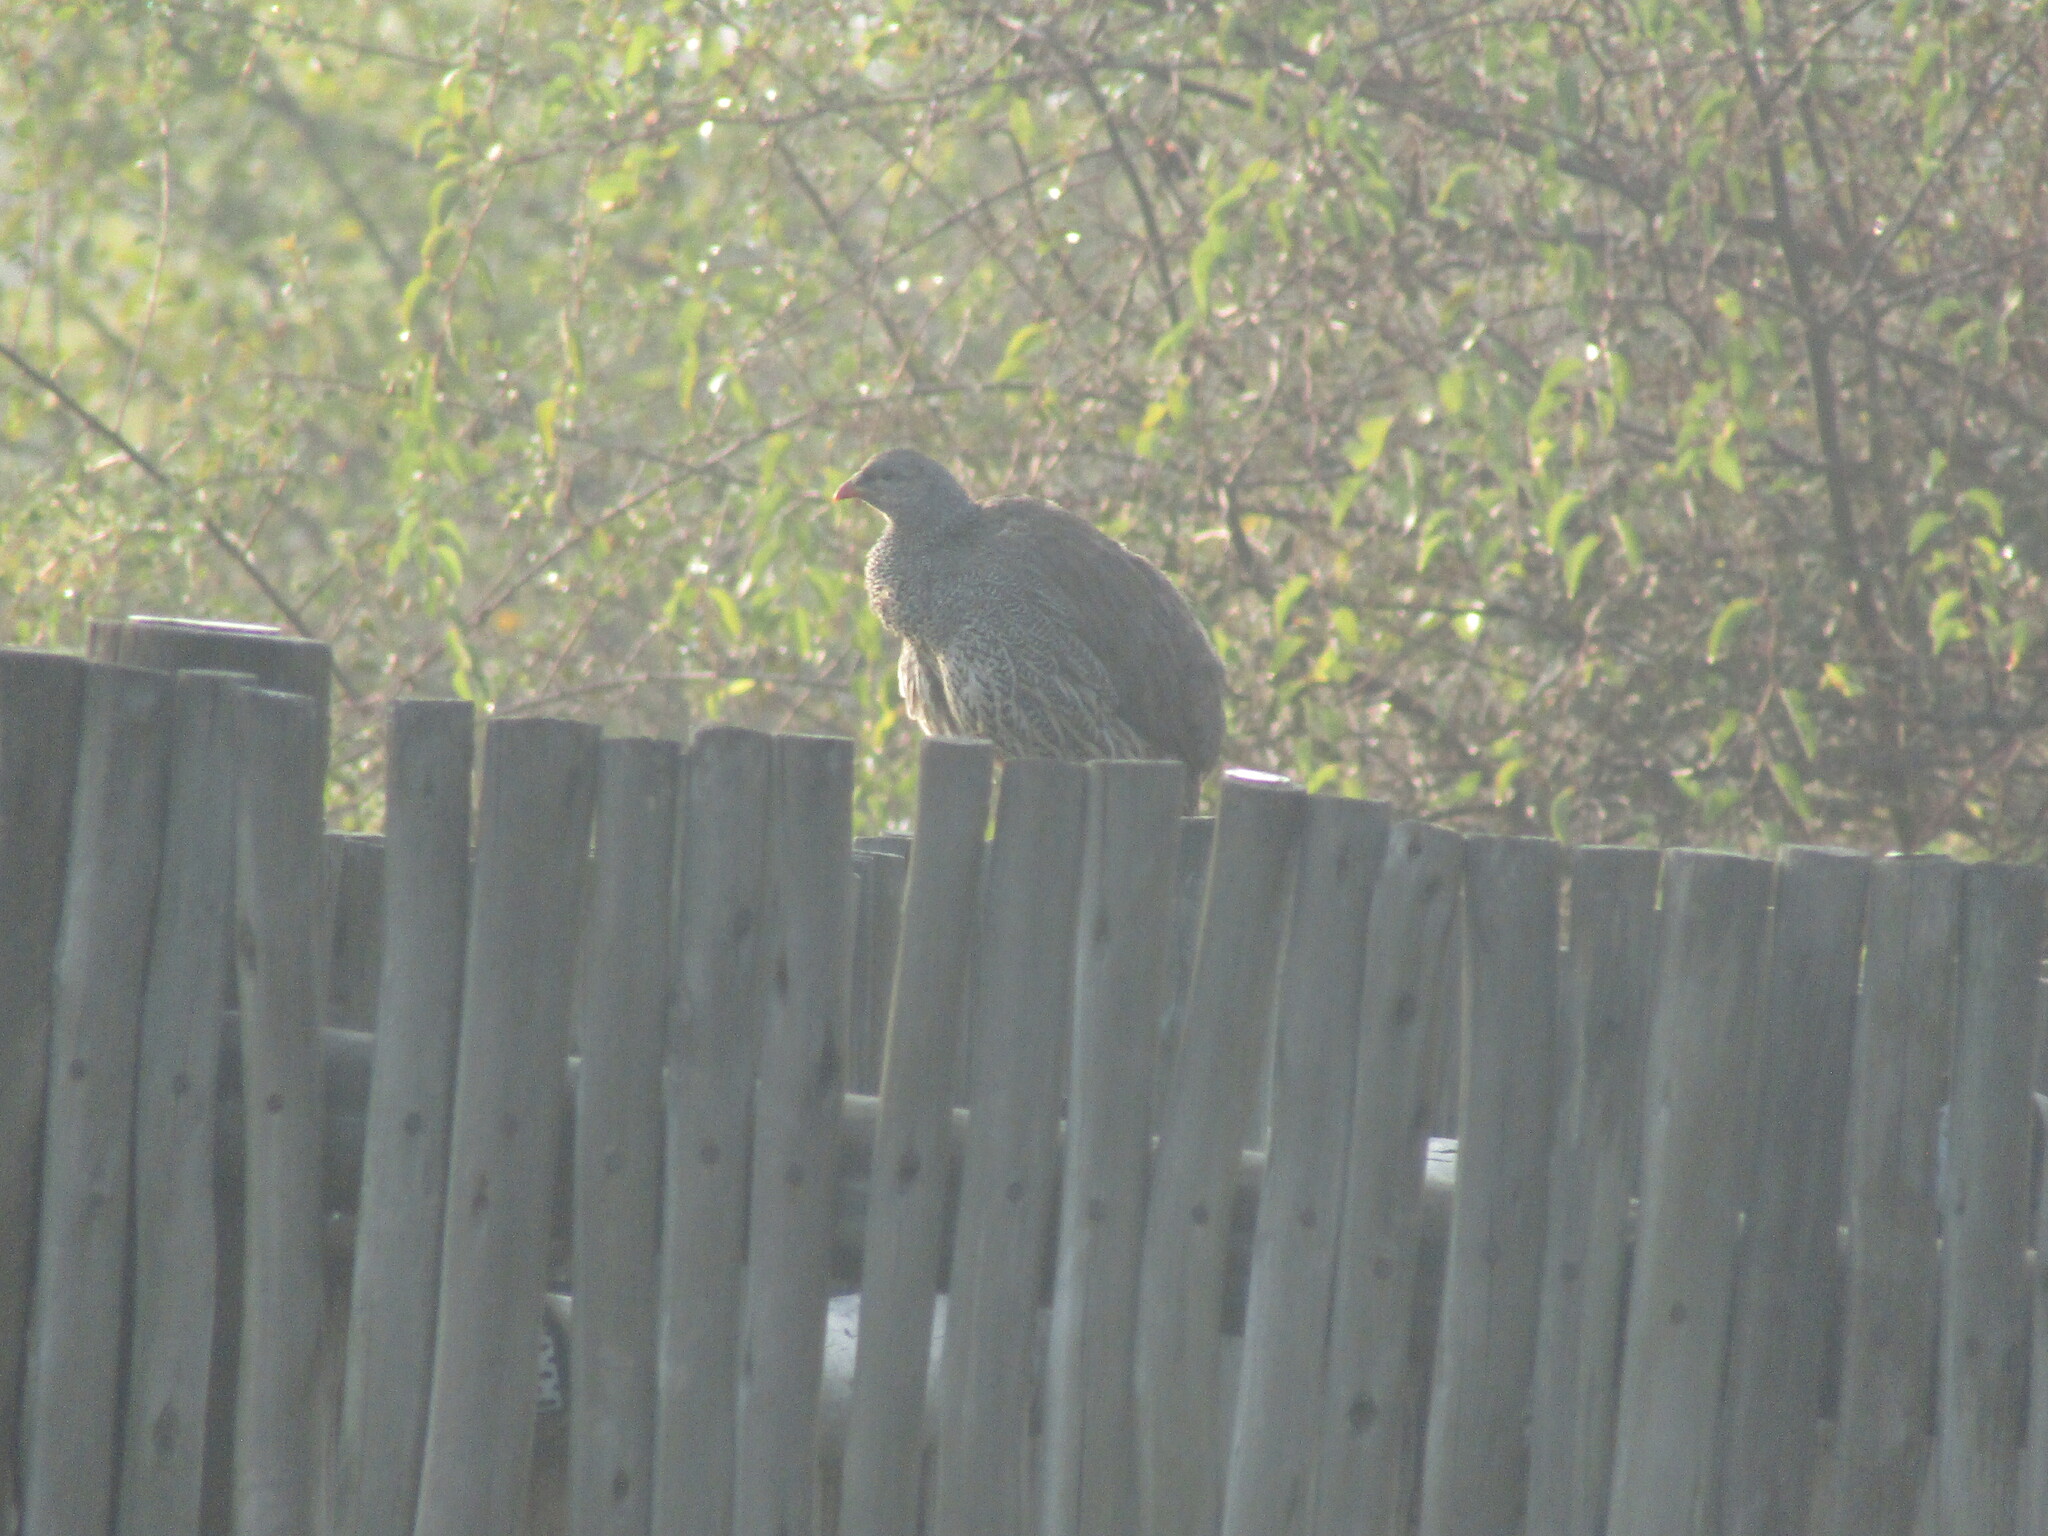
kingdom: Animalia
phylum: Chordata
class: Aves
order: Galliformes
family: Phasianidae
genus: Pternistis
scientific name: Pternistis natalensis
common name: Natal spurfowl
